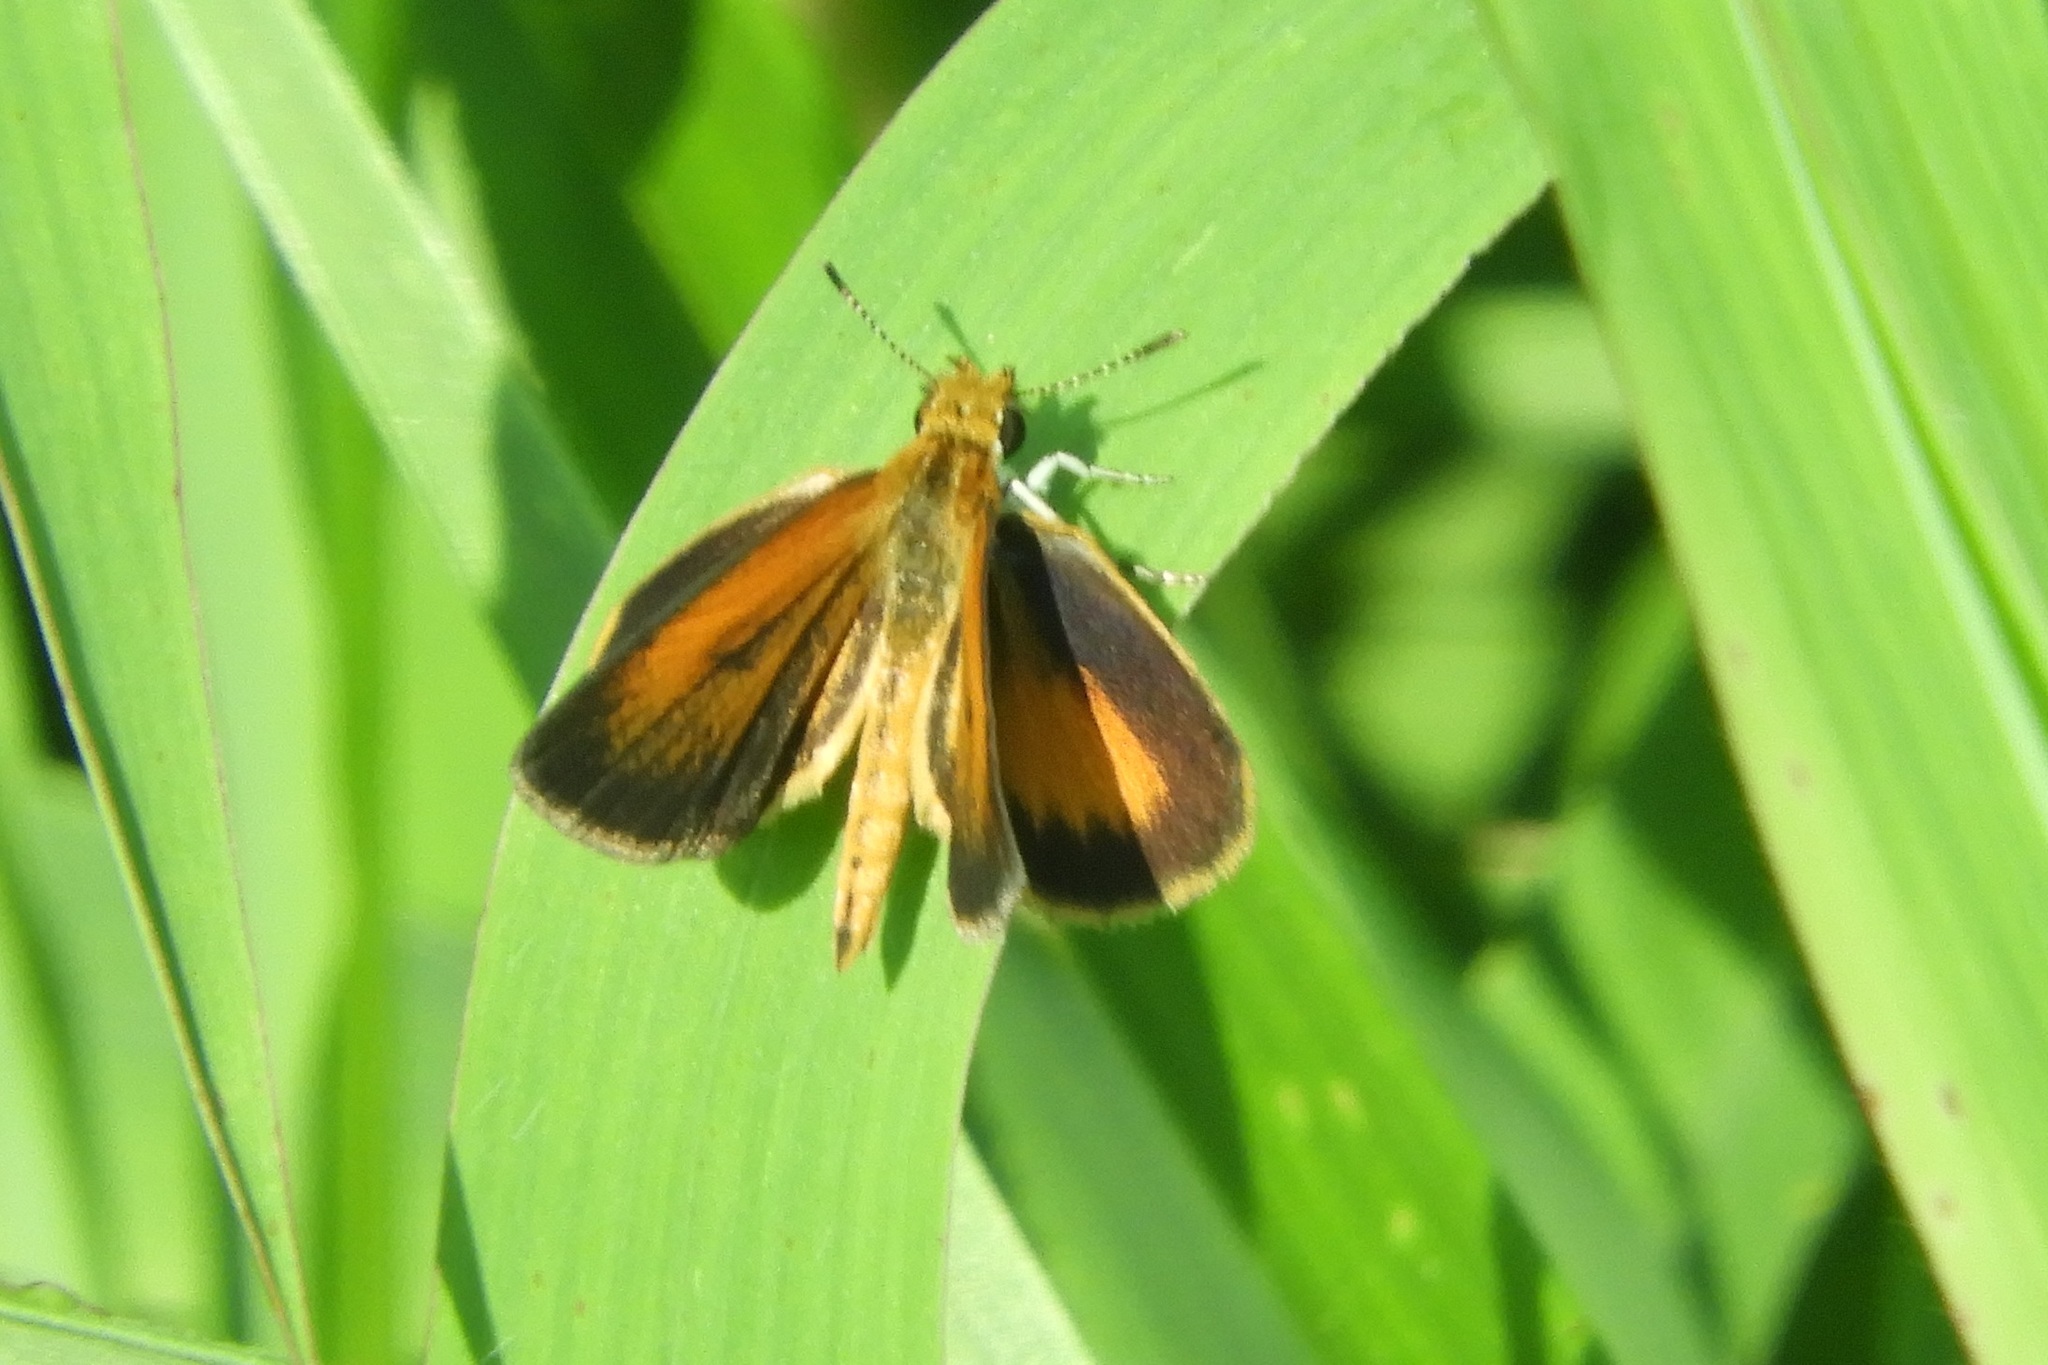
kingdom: Animalia
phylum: Arthropoda
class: Insecta
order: Lepidoptera
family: Hesperiidae
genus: Ancyloxypha
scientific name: Ancyloxypha numitor
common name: Least skipper
